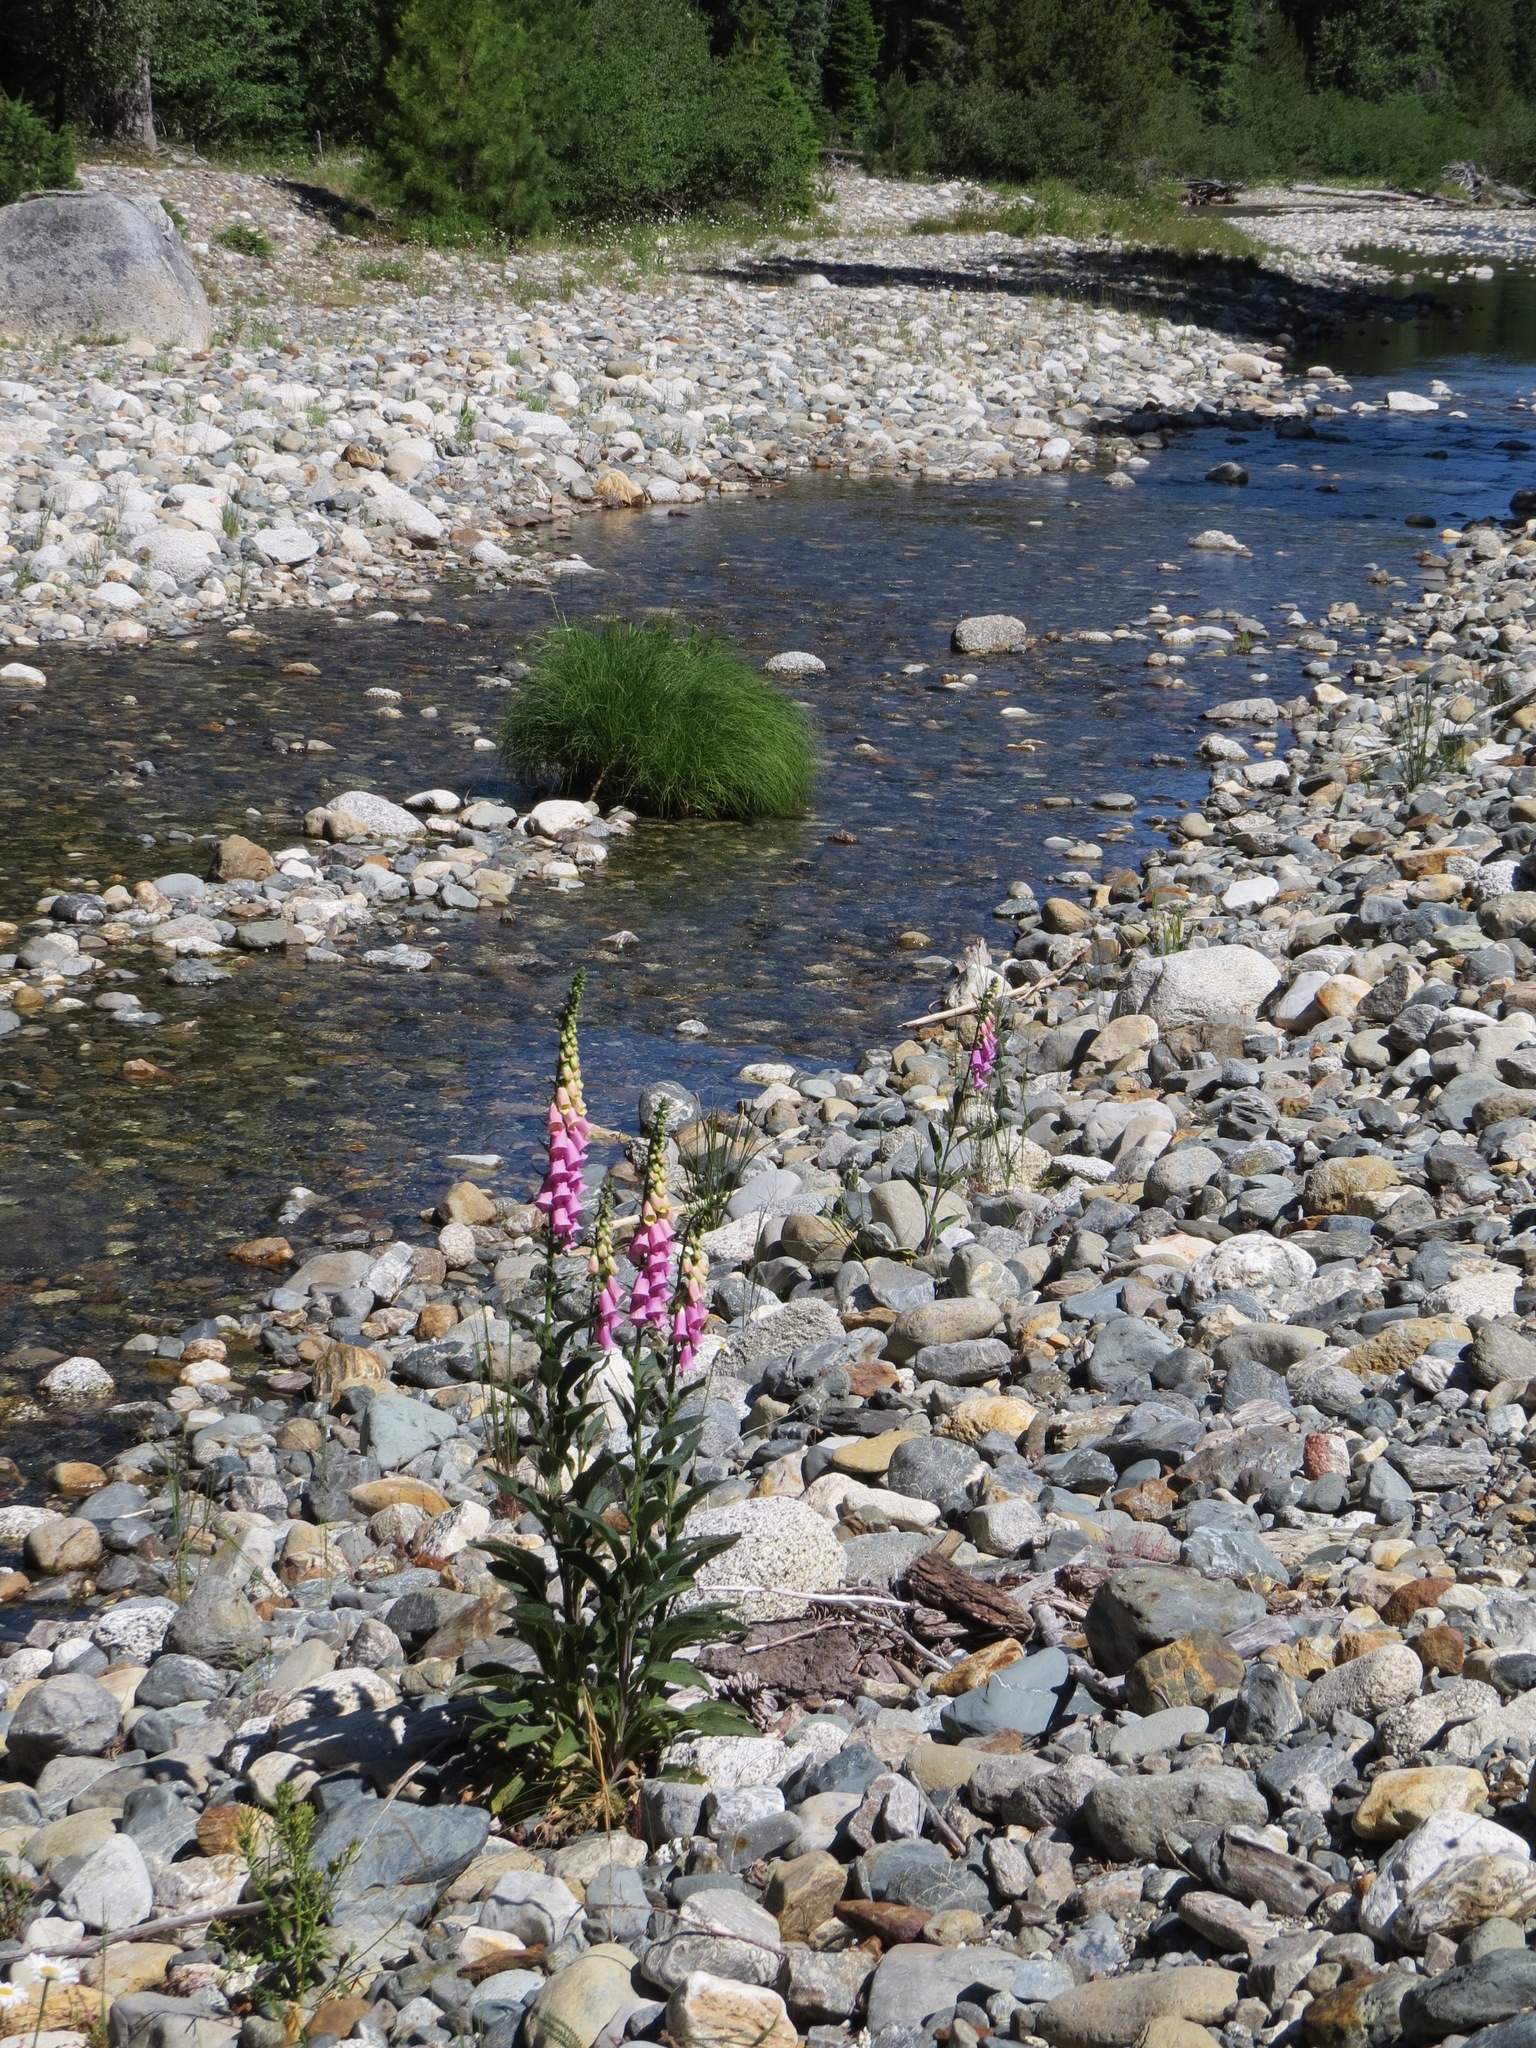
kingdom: Plantae
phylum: Tracheophyta
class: Magnoliopsida
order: Lamiales
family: Plantaginaceae
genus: Digitalis
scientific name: Digitalis purpurea
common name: Foxglove
